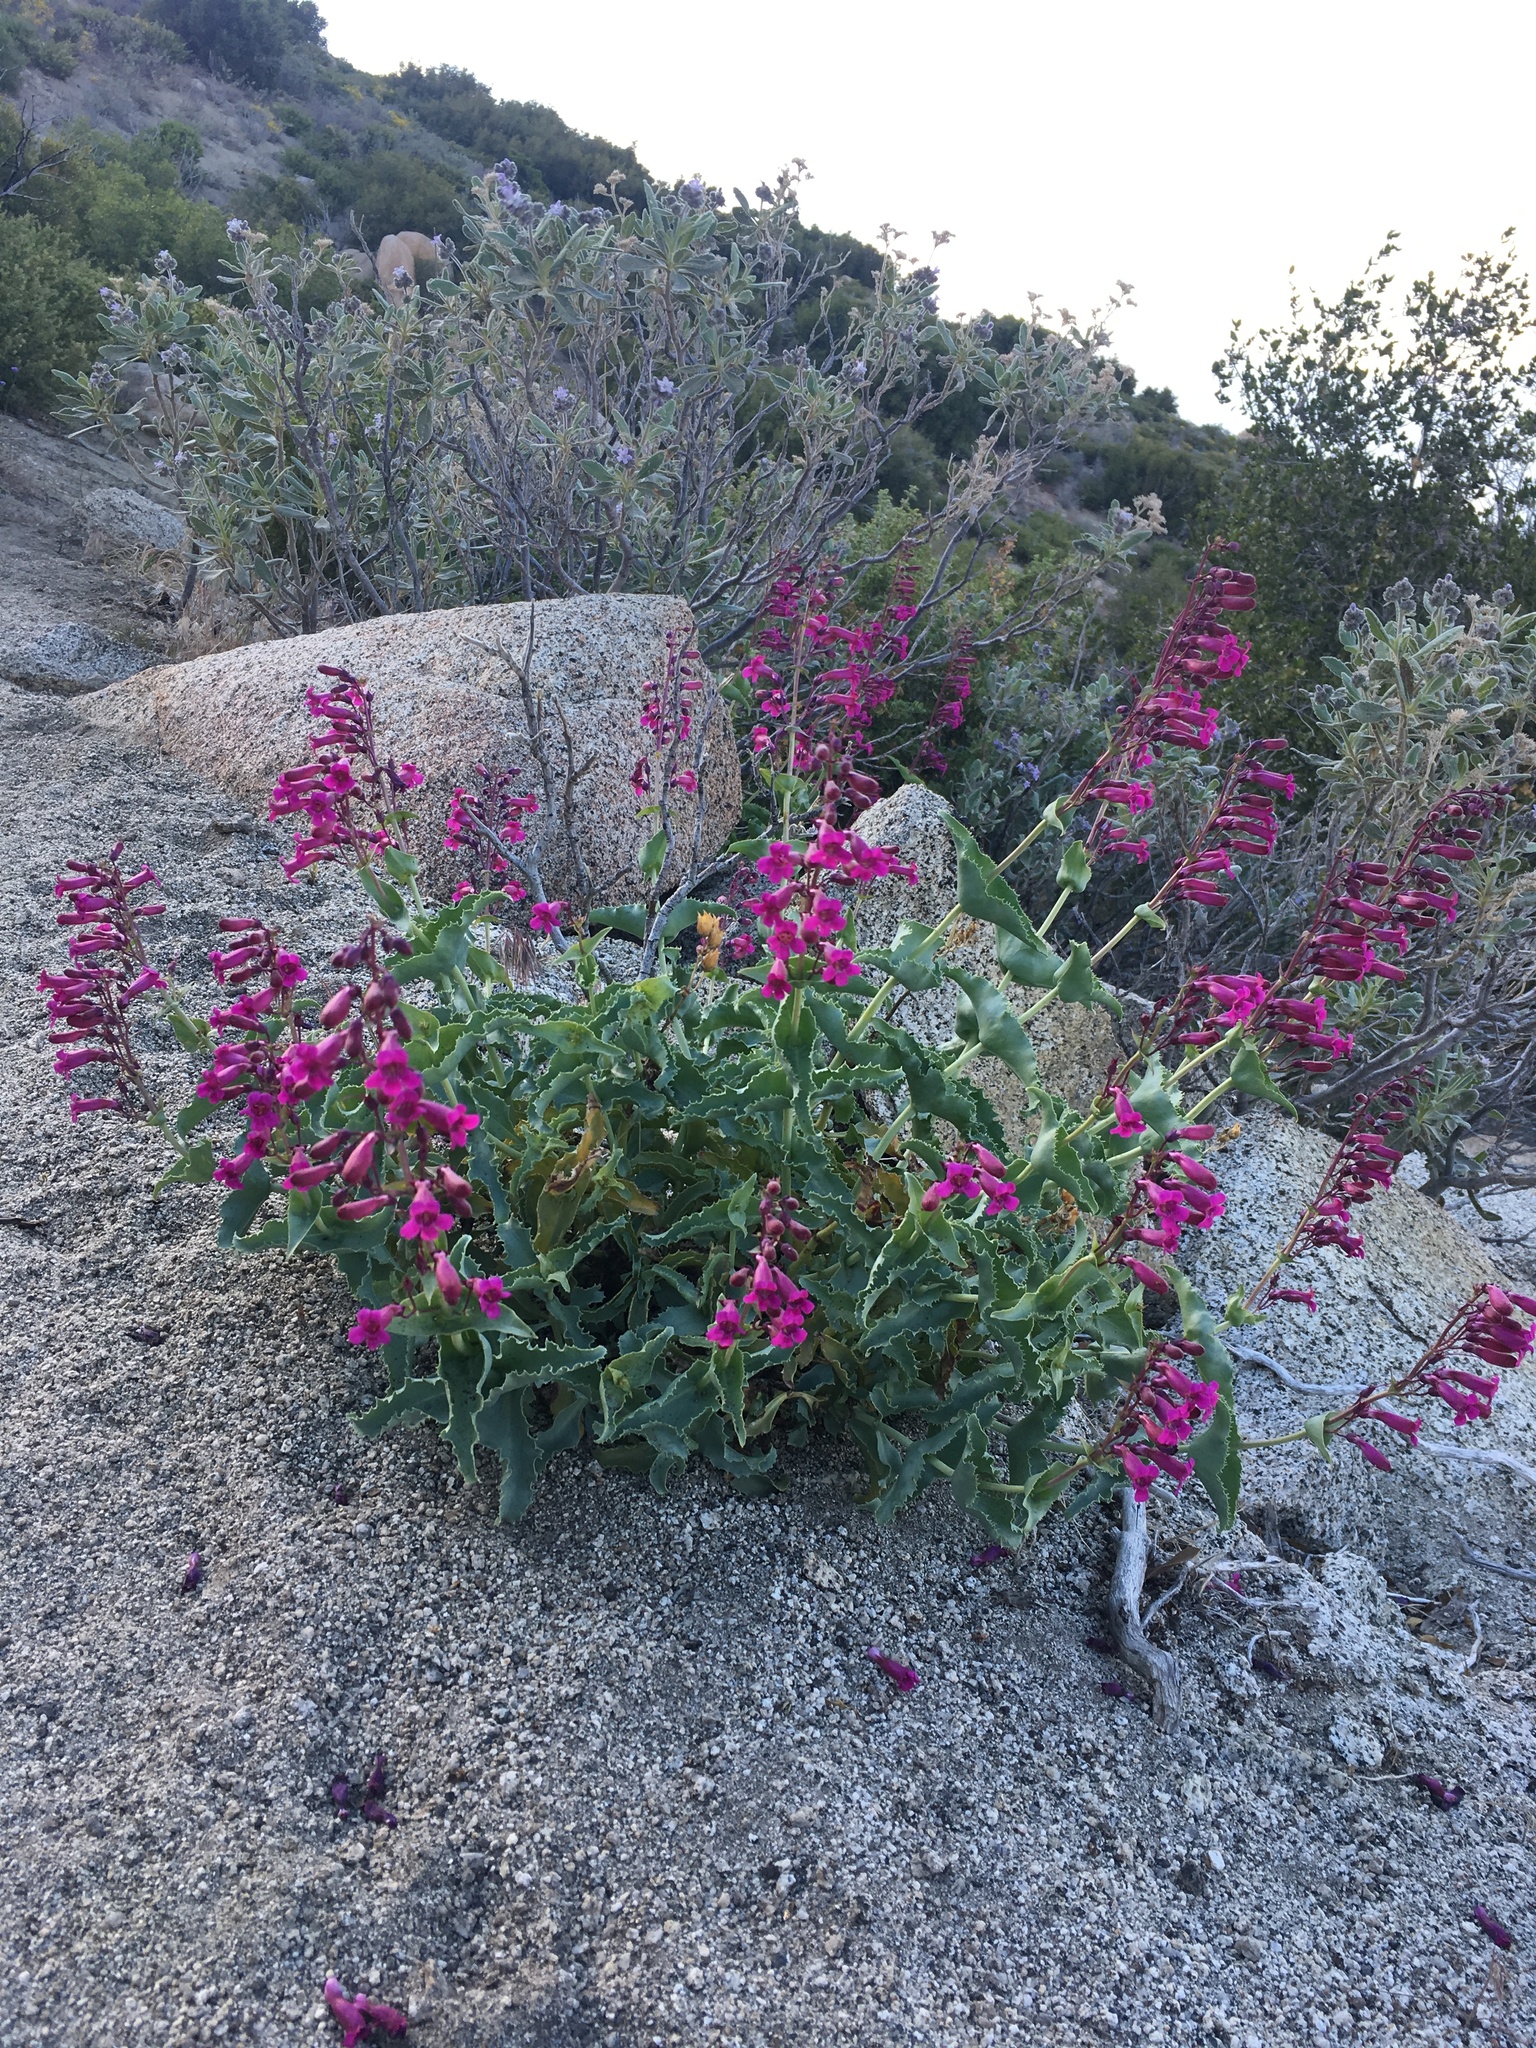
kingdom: Plantae
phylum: Tracheophyta
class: Magnoliopsida
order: Lamiales
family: Plantaginaceae
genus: Penstemon
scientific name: Penstemon clevelandii
